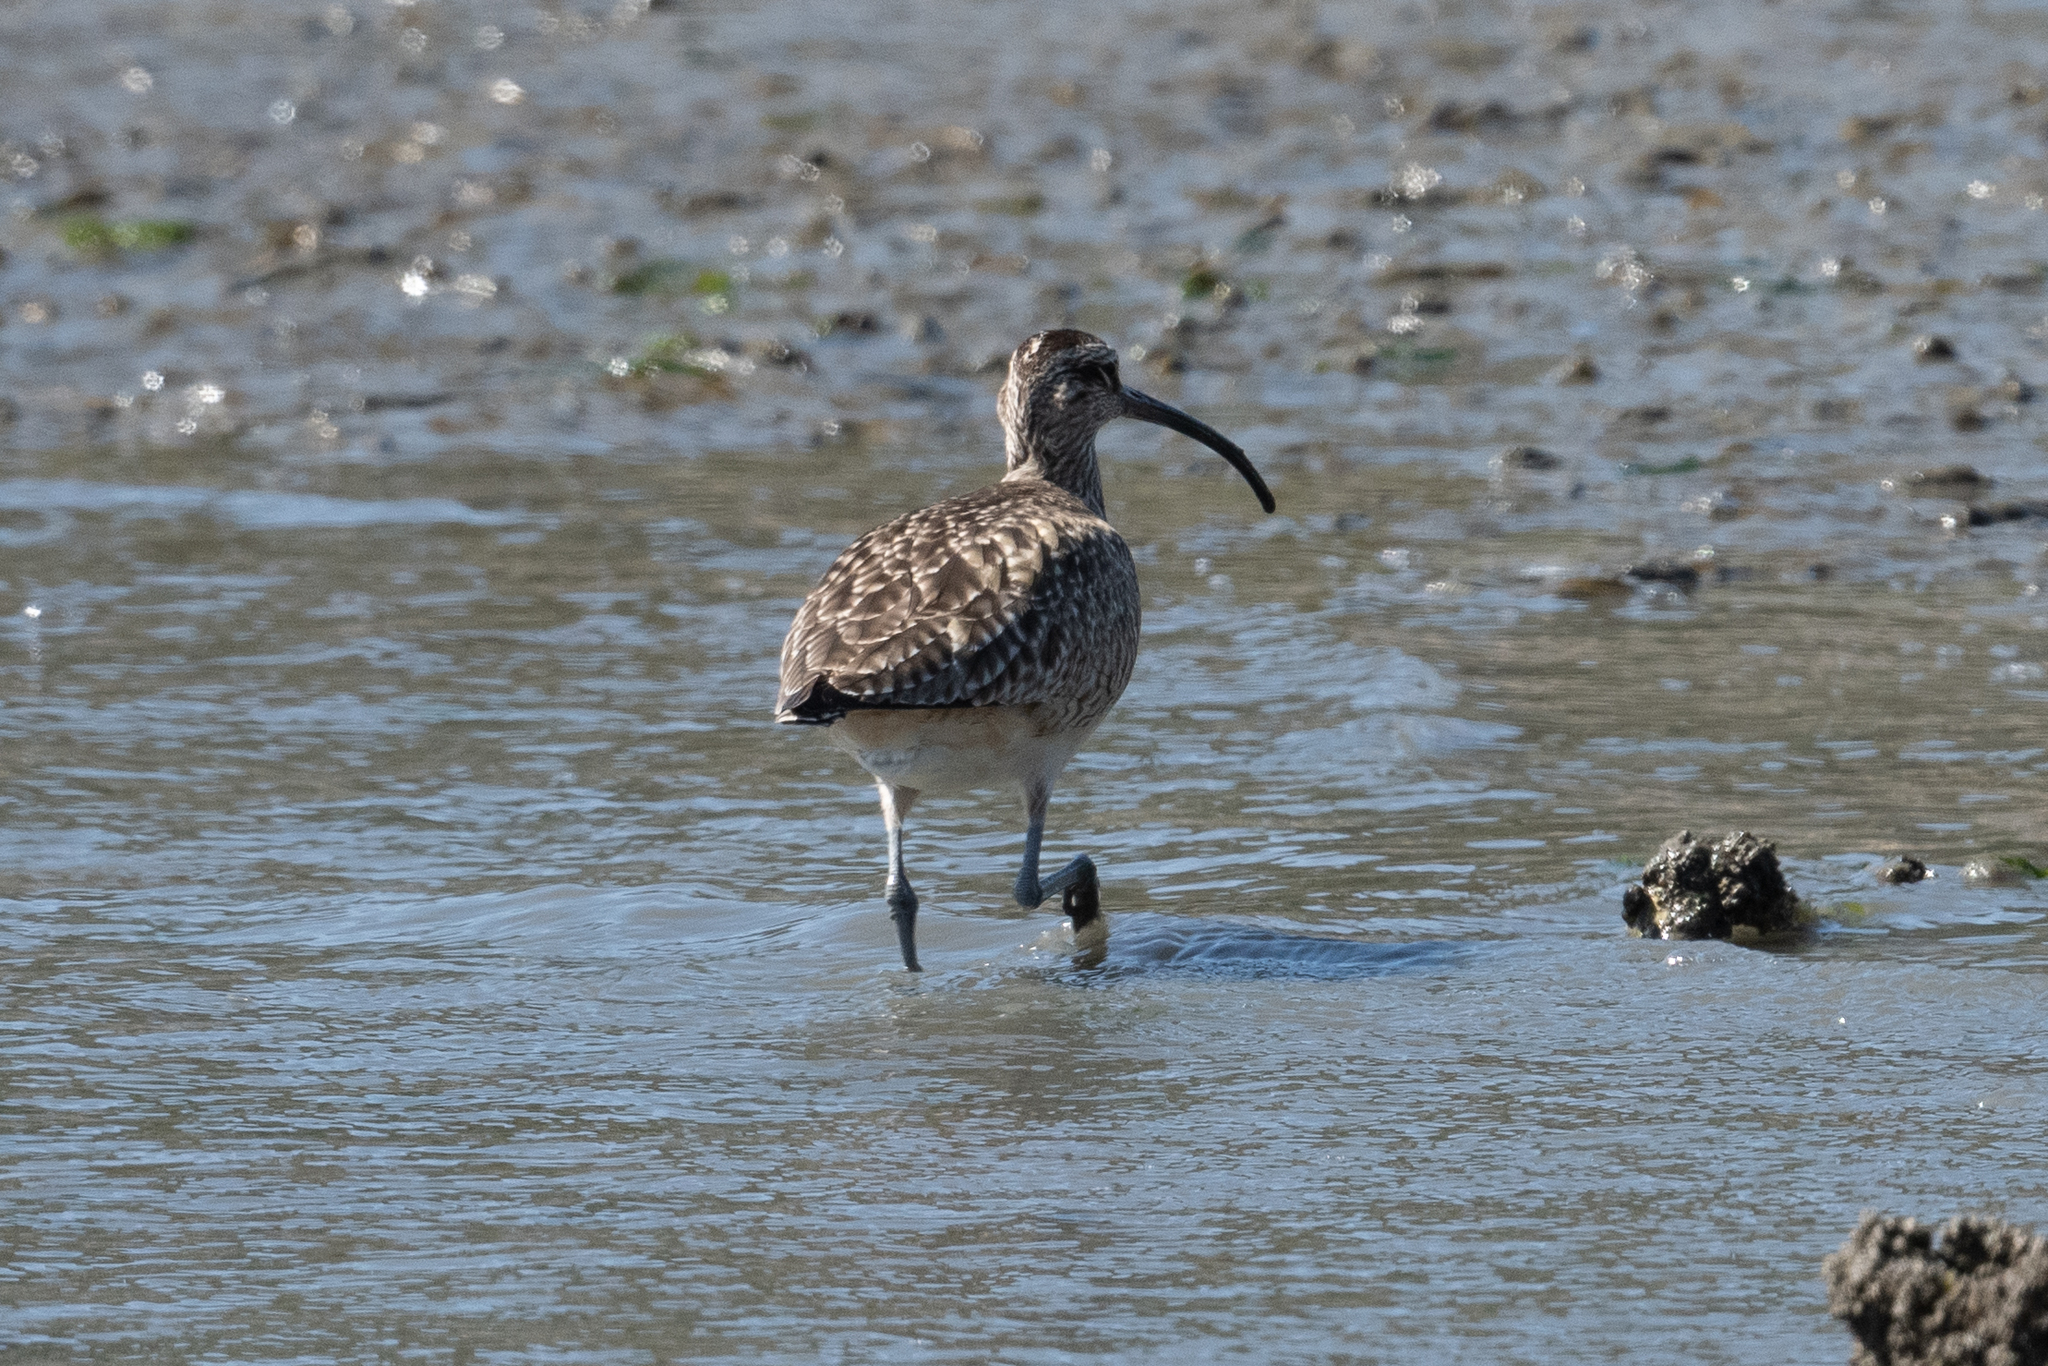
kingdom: Animalia
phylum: Chordata
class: Aves
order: Charadriiformes
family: Scolopacidae
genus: Numenius
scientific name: Numenius phaeopus
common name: Whimbrel
